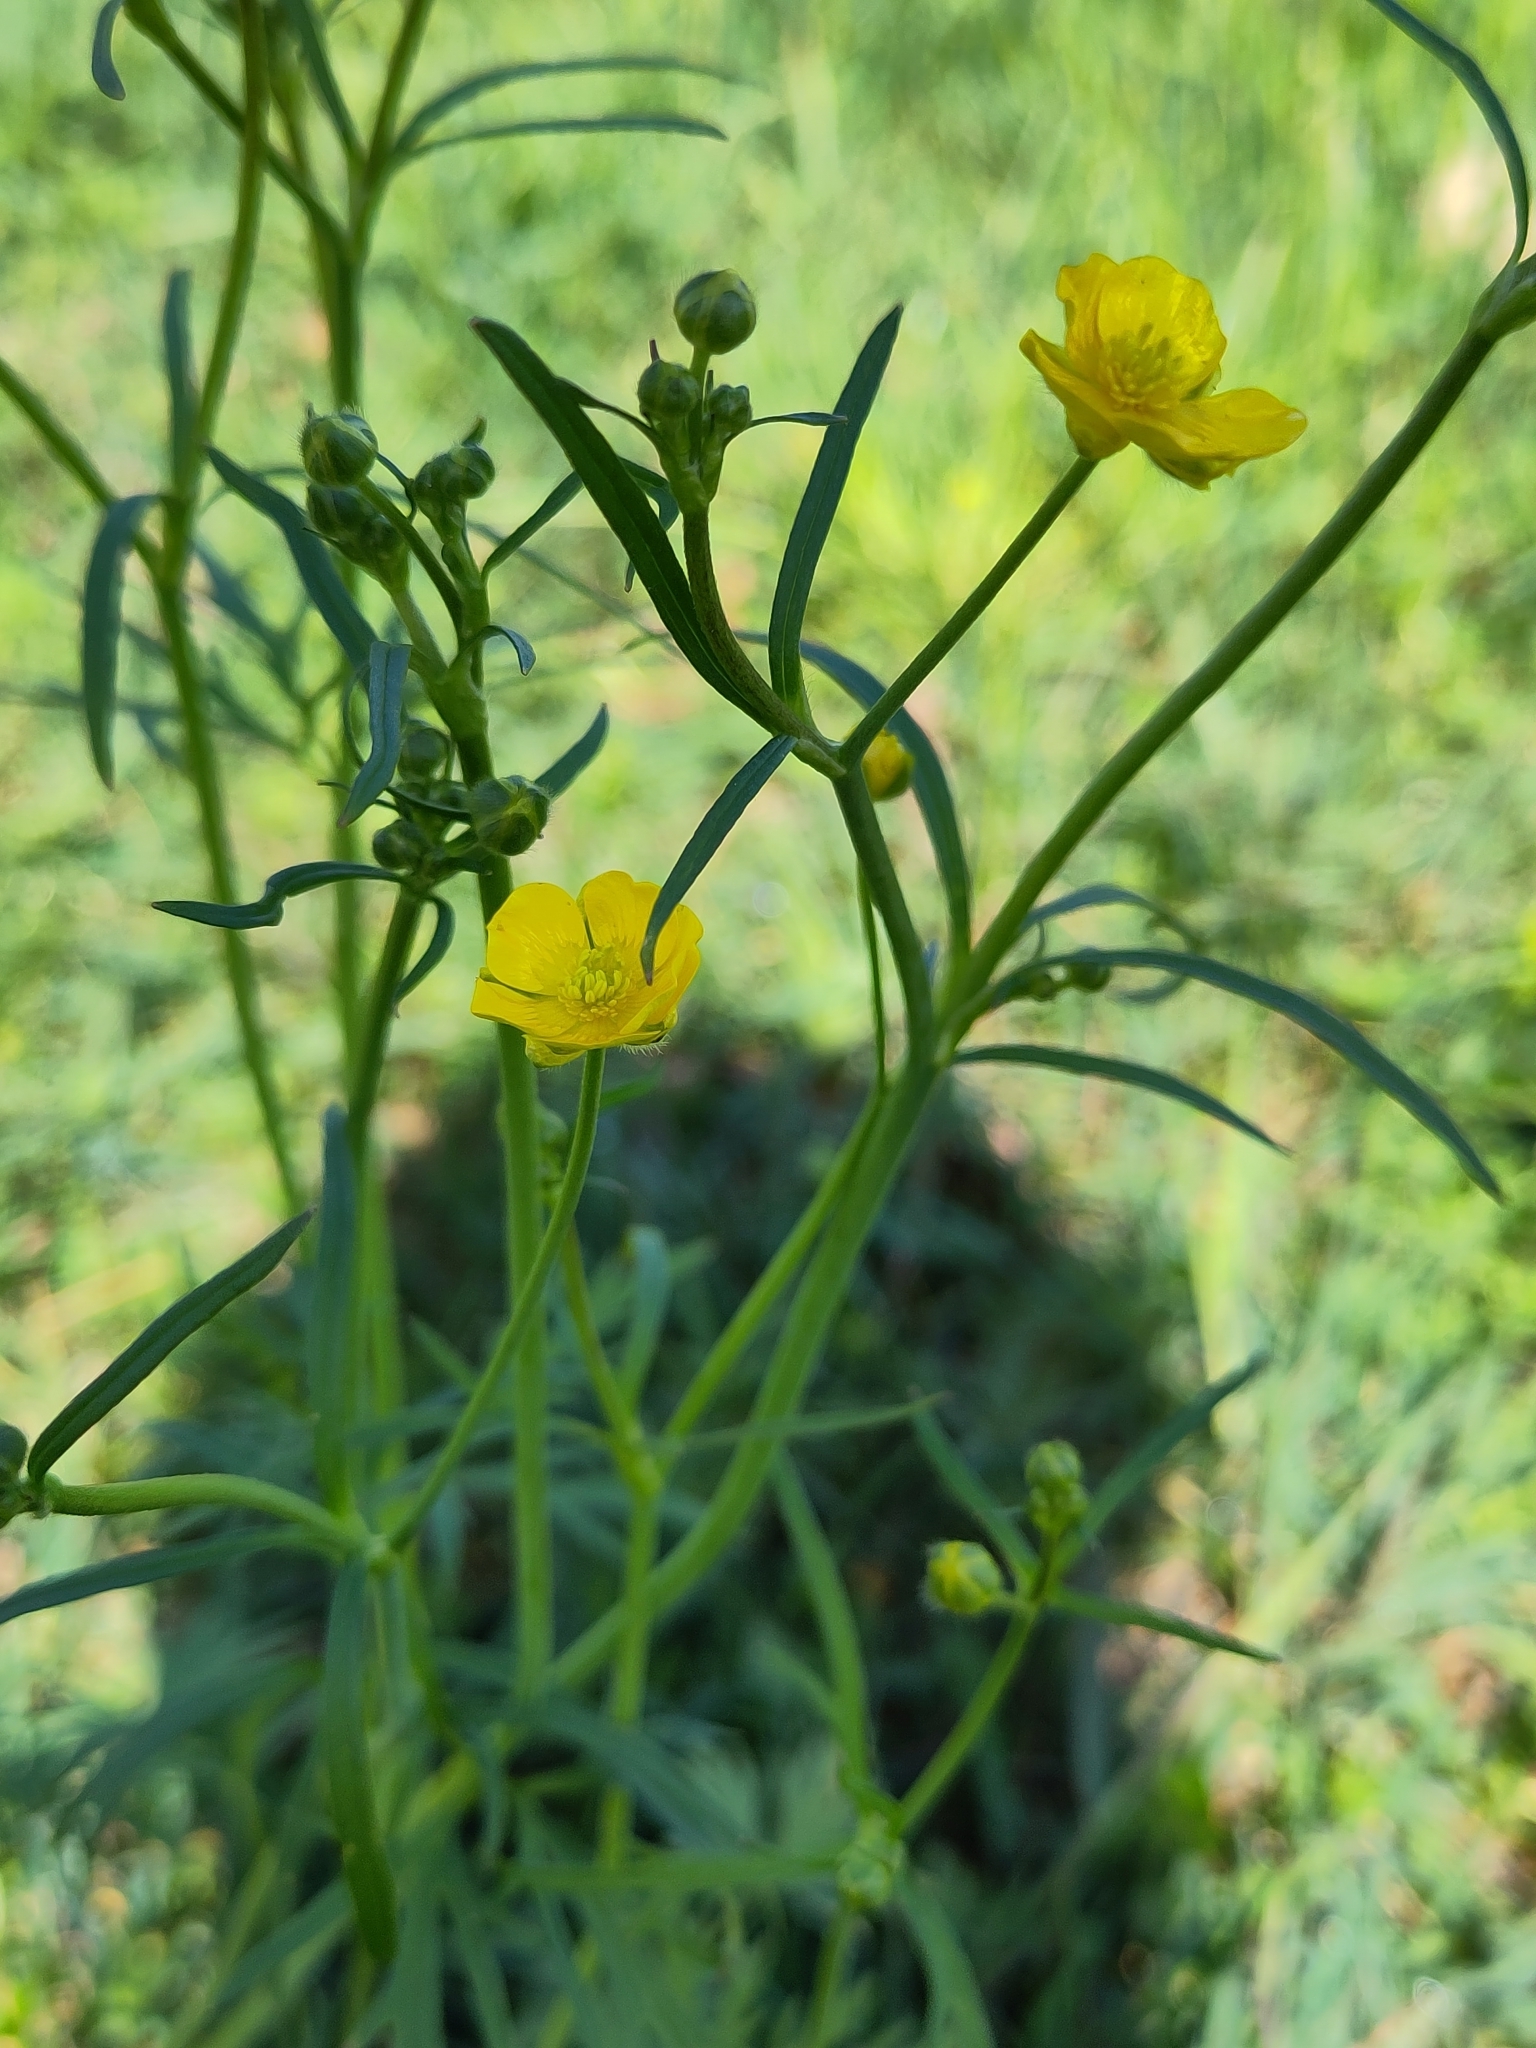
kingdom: Plantae
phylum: Tracheophyta
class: Magnoliopsida
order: Ranunculales
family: Ranunculaceae
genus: Ranunculus
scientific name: Ranunculus acris
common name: Meadow buttercup
